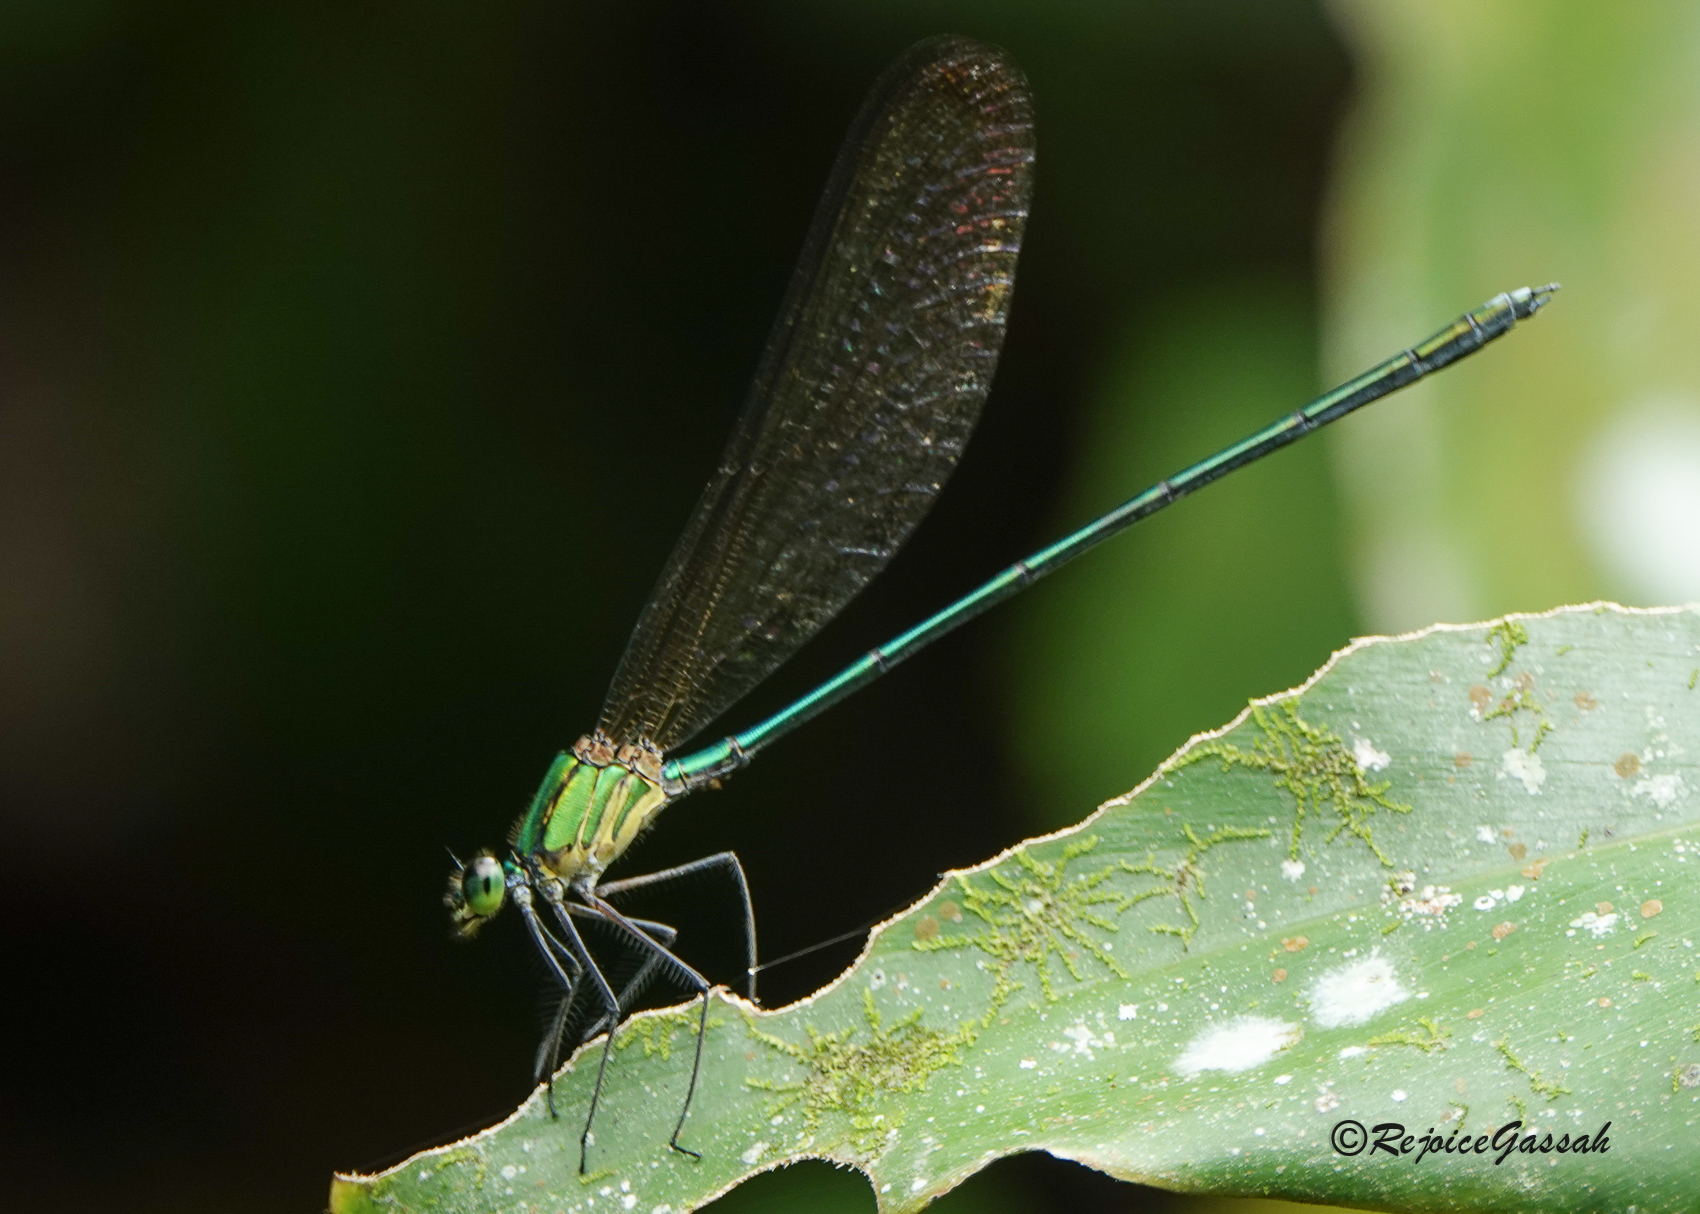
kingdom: Animalia
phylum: Arthropoda
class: Insecta
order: Odonata
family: Calopterygidae
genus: Vestalis
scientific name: Vestalis gracilis
